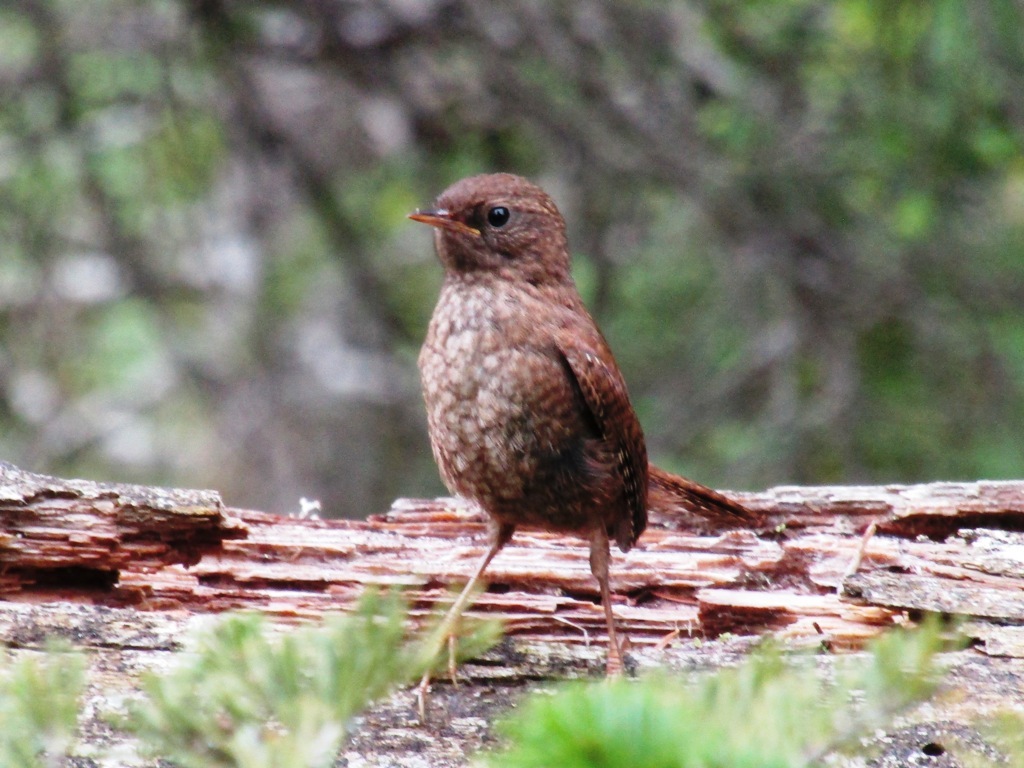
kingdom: Animalia
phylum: Chordata
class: Aves
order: Passeriformes
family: Troglodytidae
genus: Troglodytes
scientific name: Troglodytes troglodytes
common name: Eurasian wren
